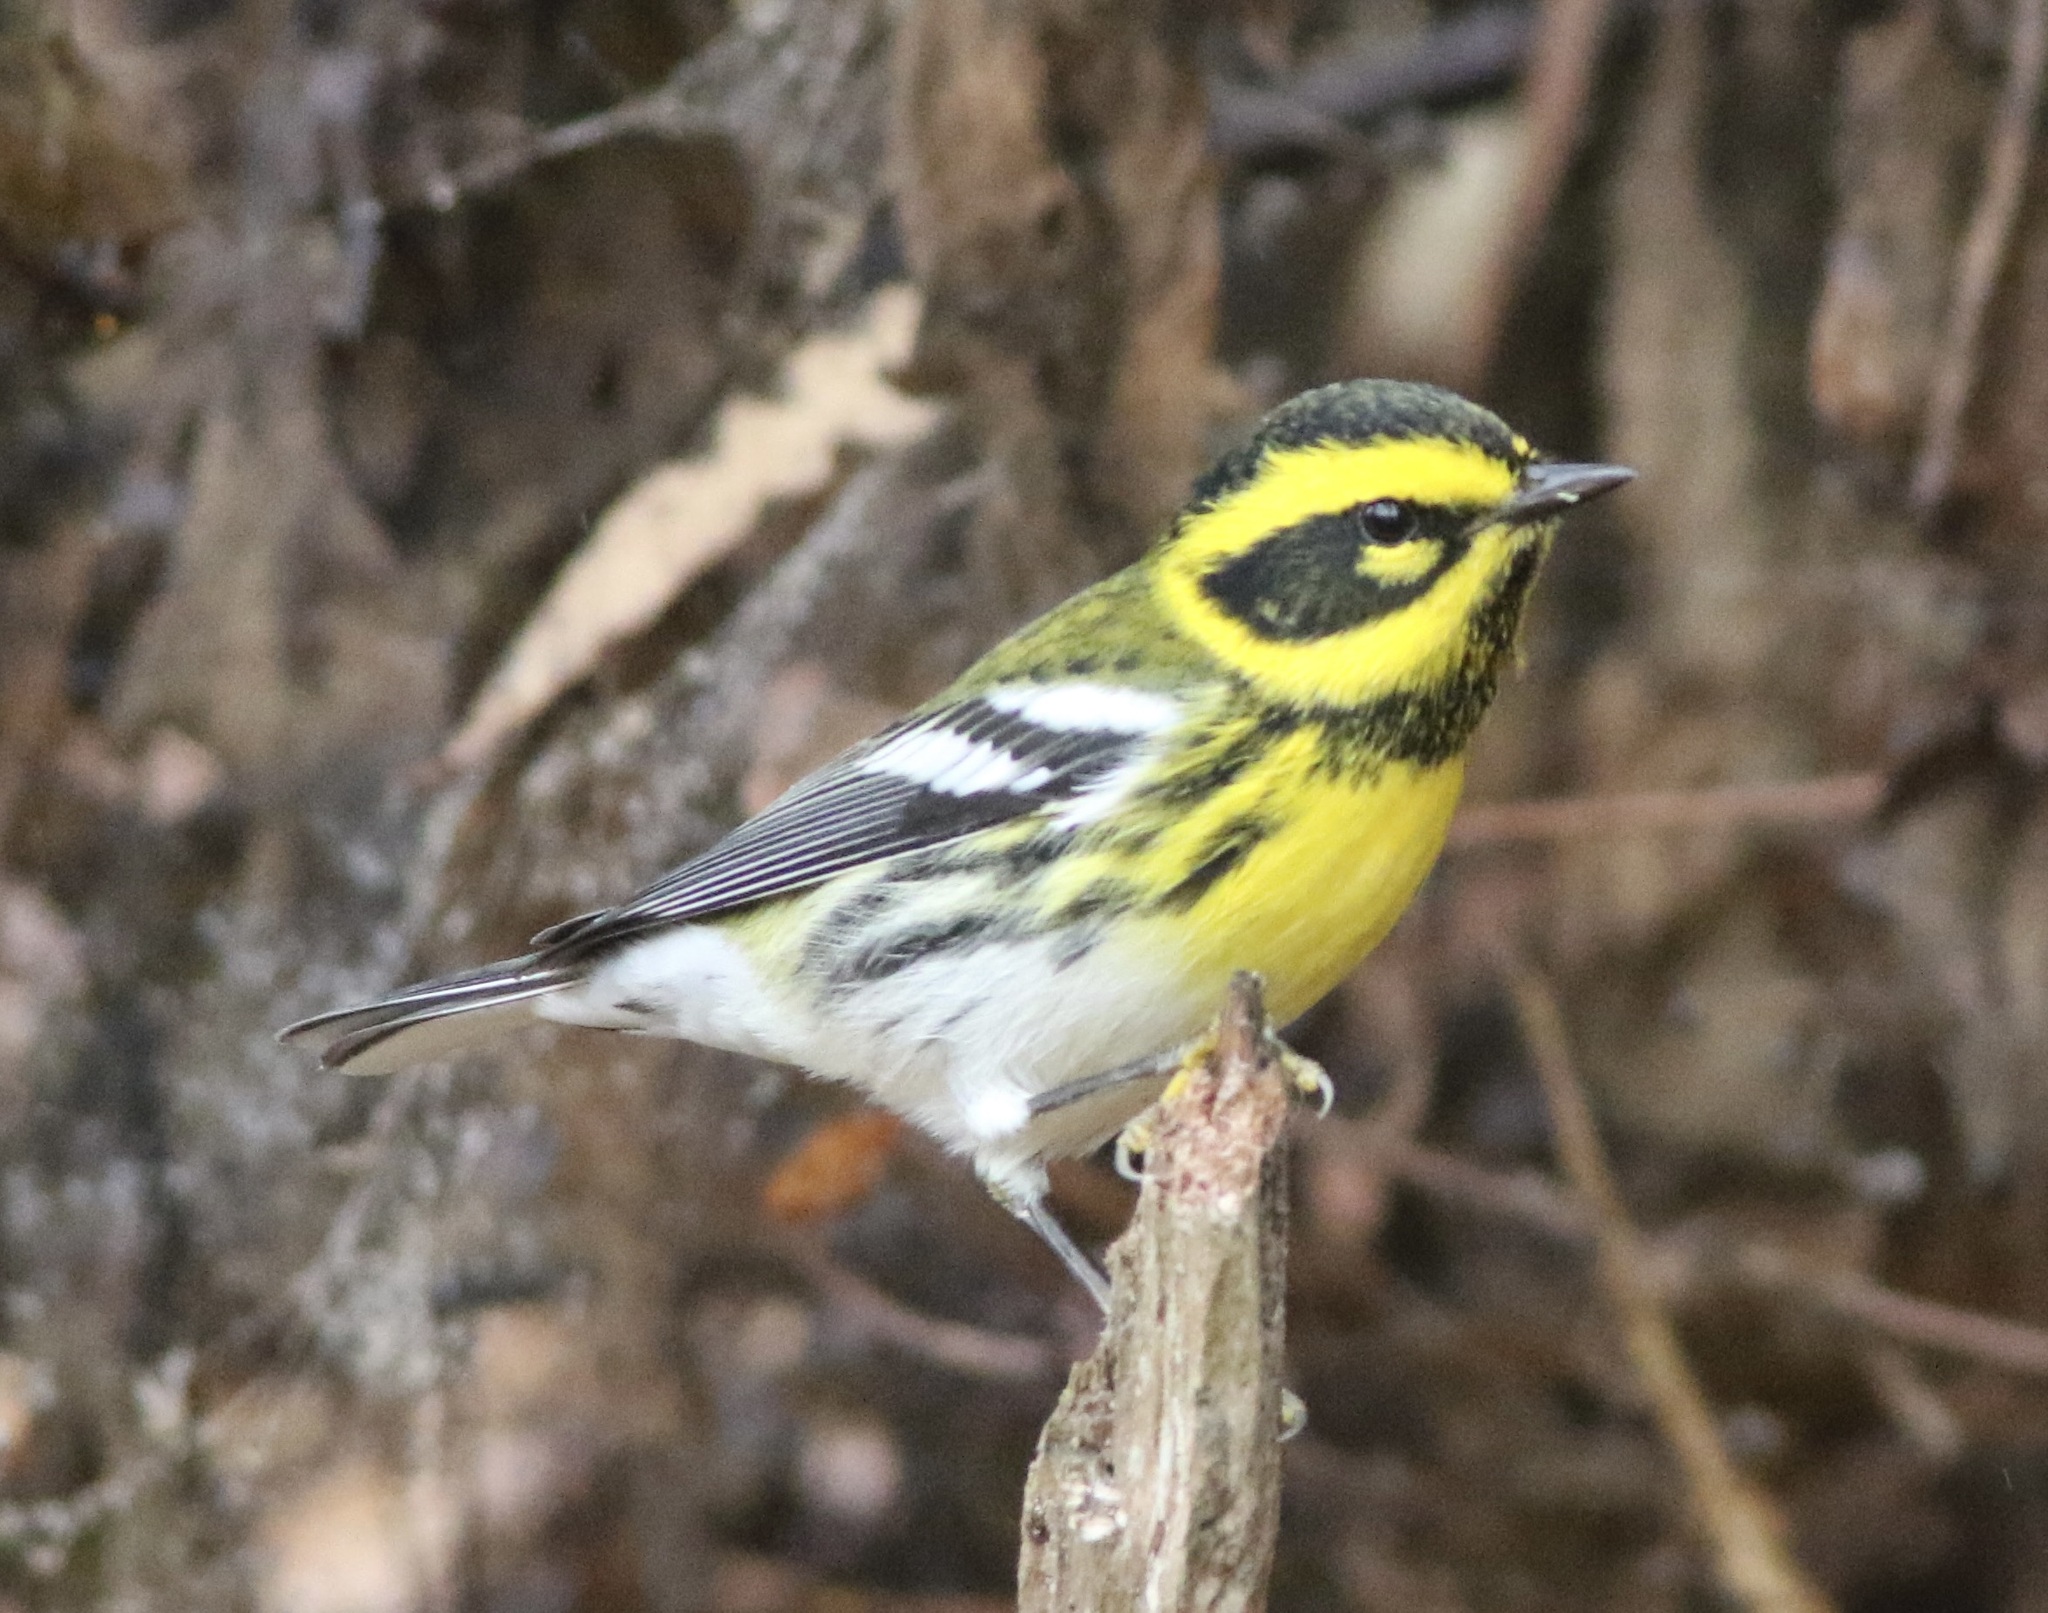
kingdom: Animalia
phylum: Chordata
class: Aves
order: Passeriformes
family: Parulidae
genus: Setophaga
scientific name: Setophaga townsendi
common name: Townsend's warbler
